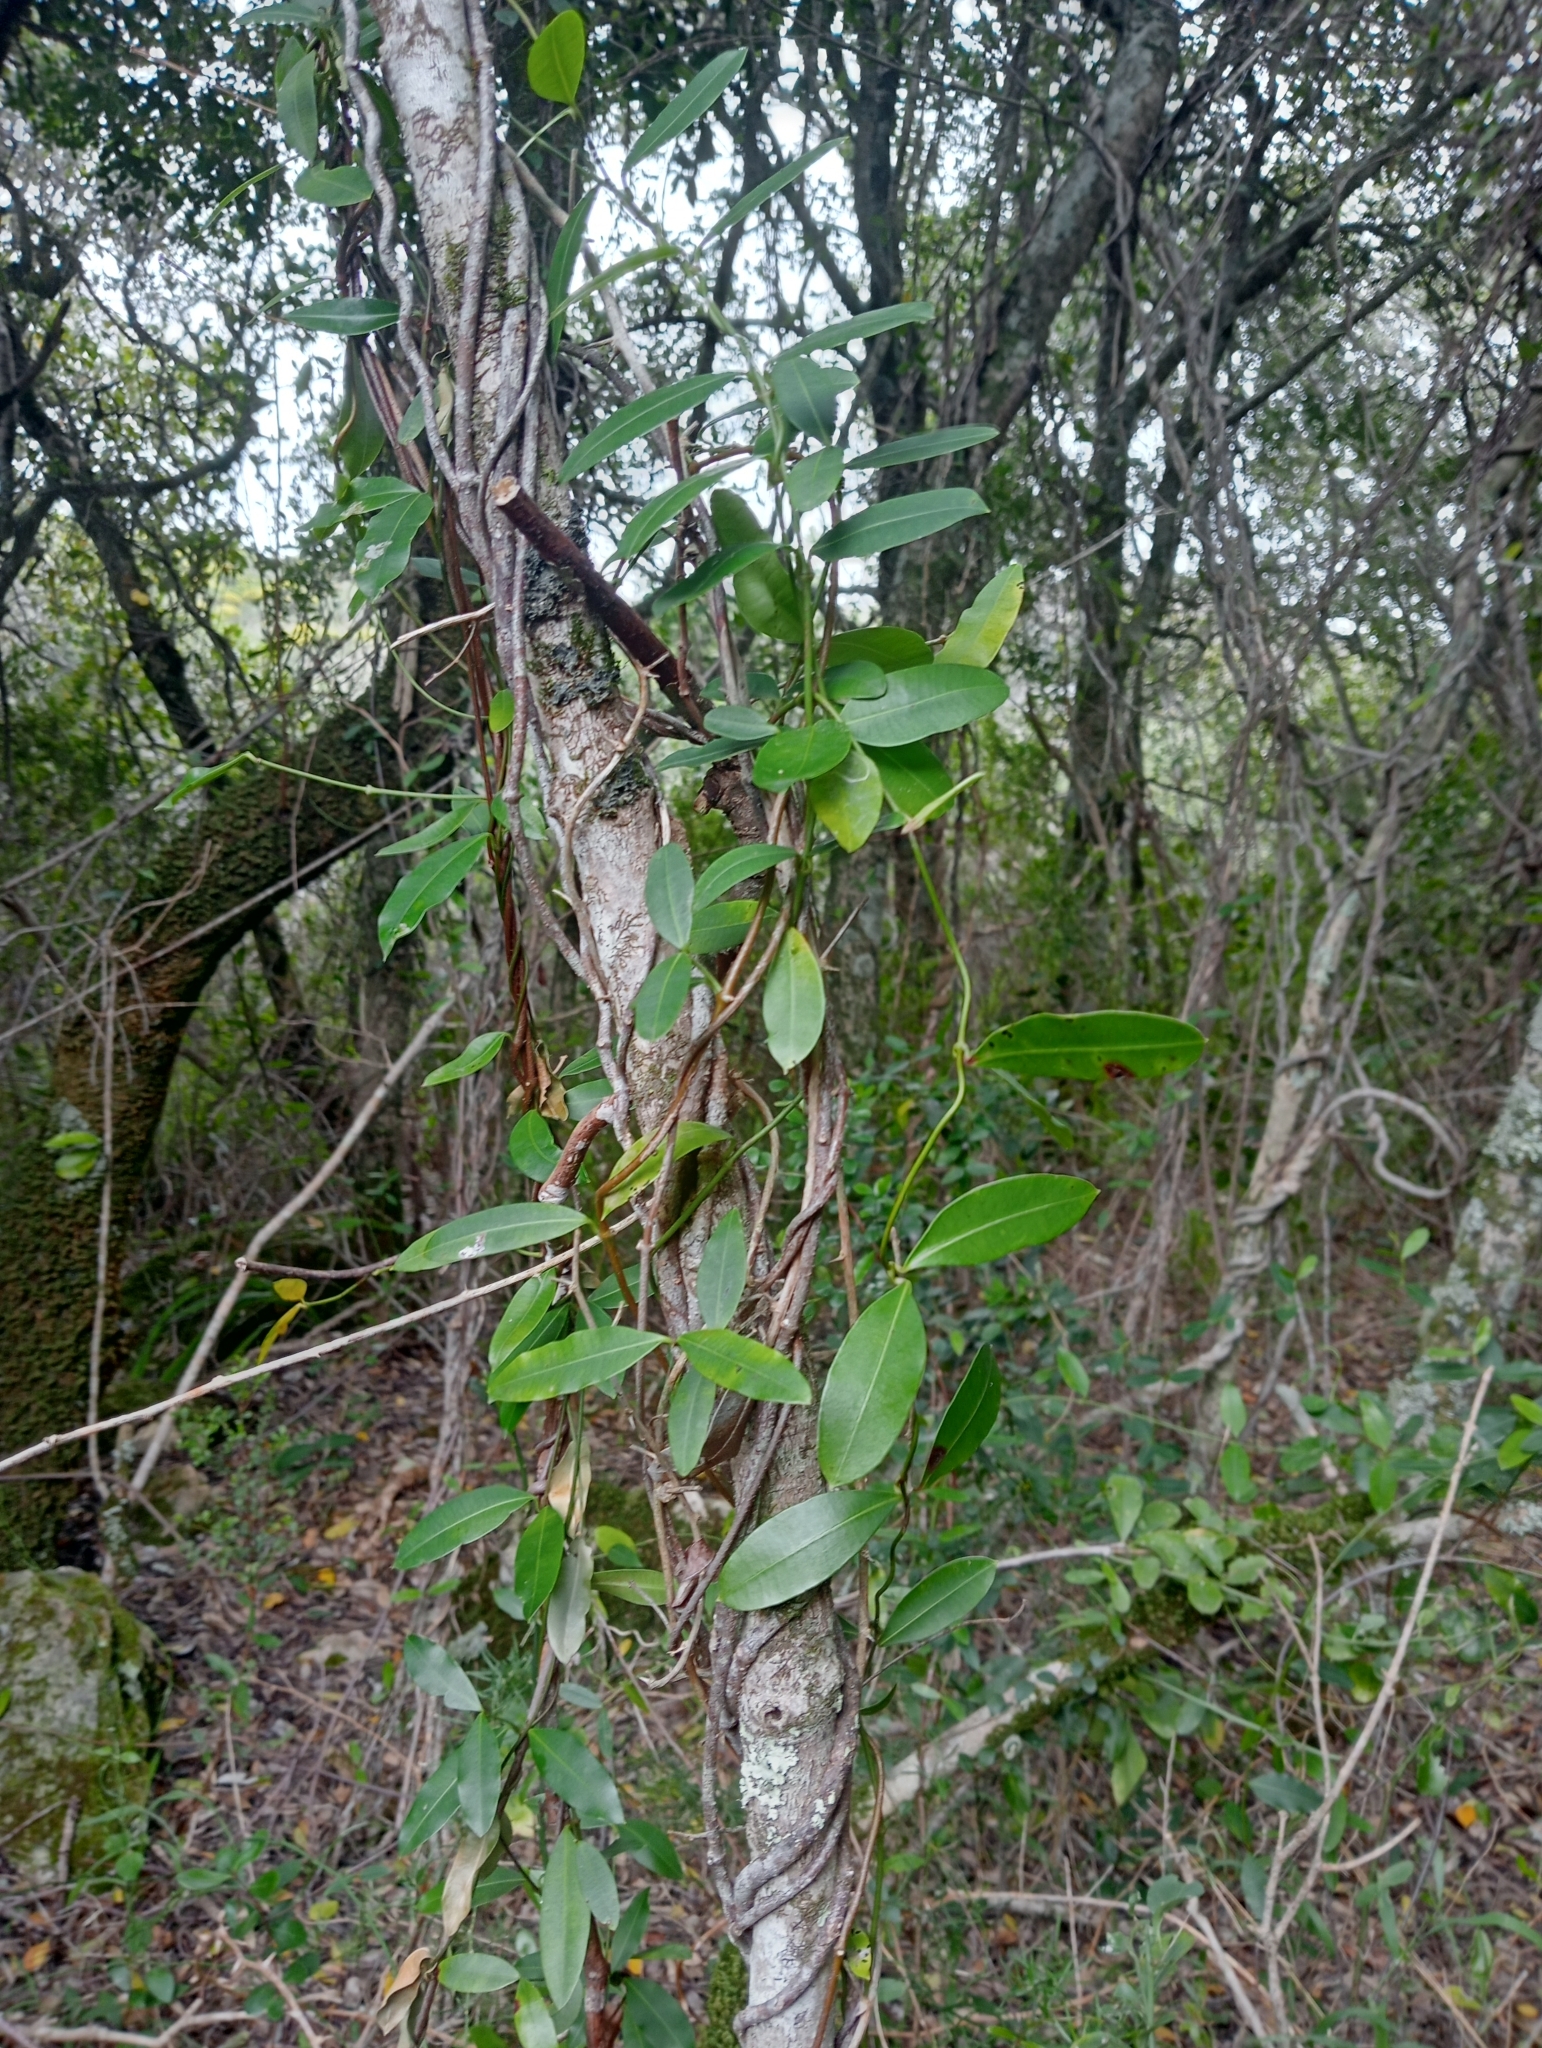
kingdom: Plantae
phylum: Tracheophyta
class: Magnoliopsida
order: Gentianales
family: Apocynaceae
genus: Secamone
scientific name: Secamone alpini
